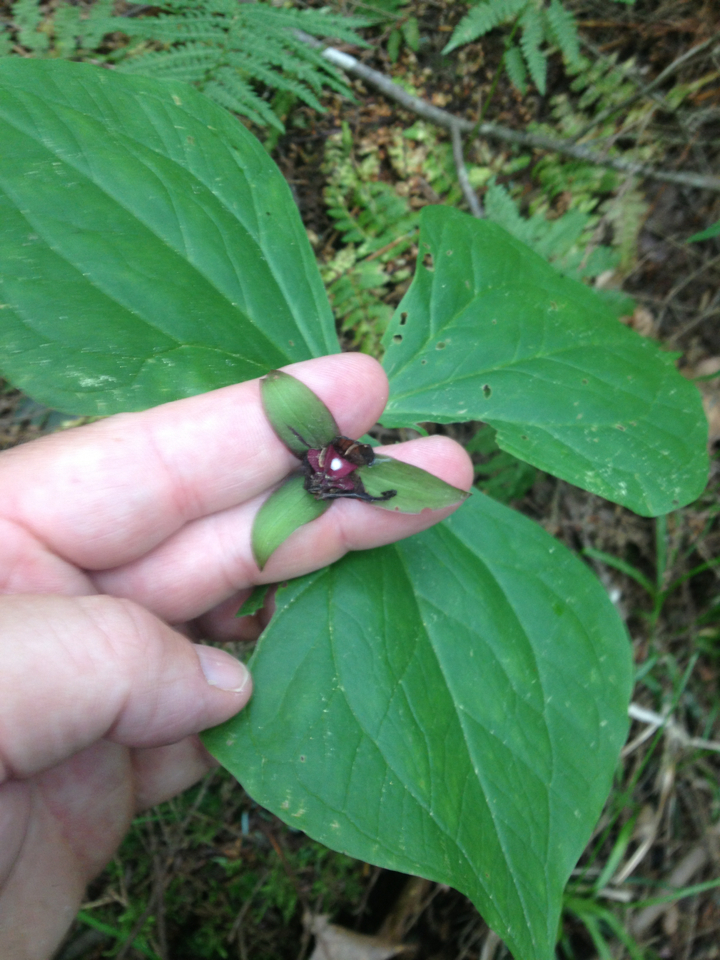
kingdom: Plantae
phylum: Tracheophyta
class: Liliopsida
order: Liliales
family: Melanthiaceae
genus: Trillium
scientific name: Trillium erectum
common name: Purple trillium
